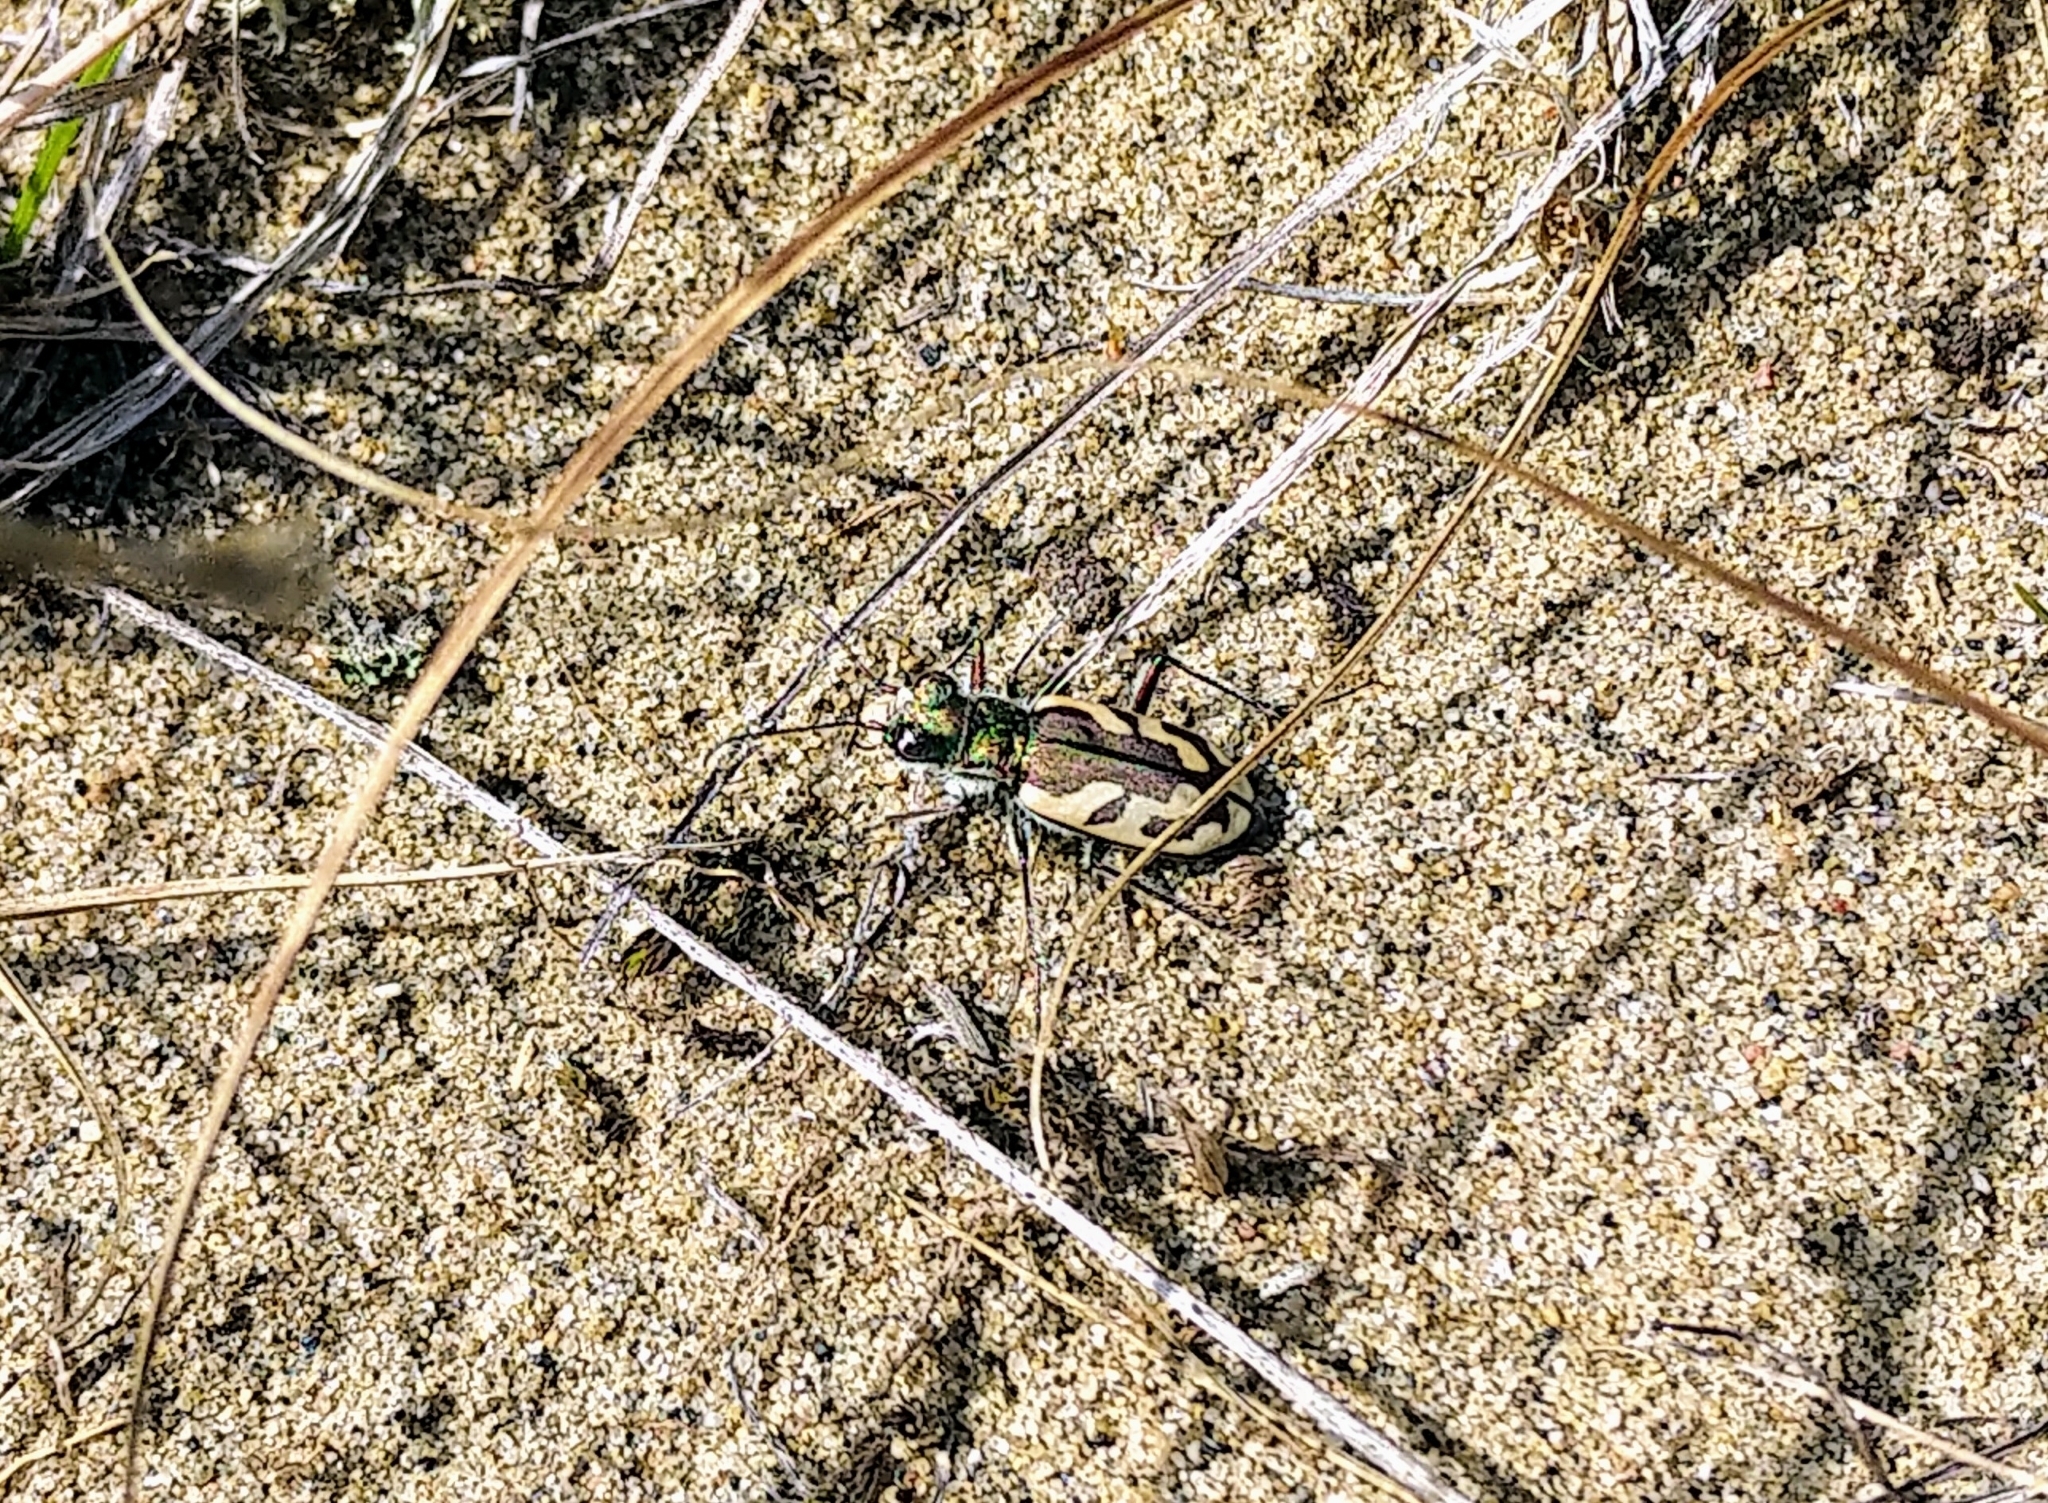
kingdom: Animalia
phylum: Arthropoda
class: Insecta
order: Coleoptera
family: Carabidae
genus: Cicindela
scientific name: Cicindela lengi
